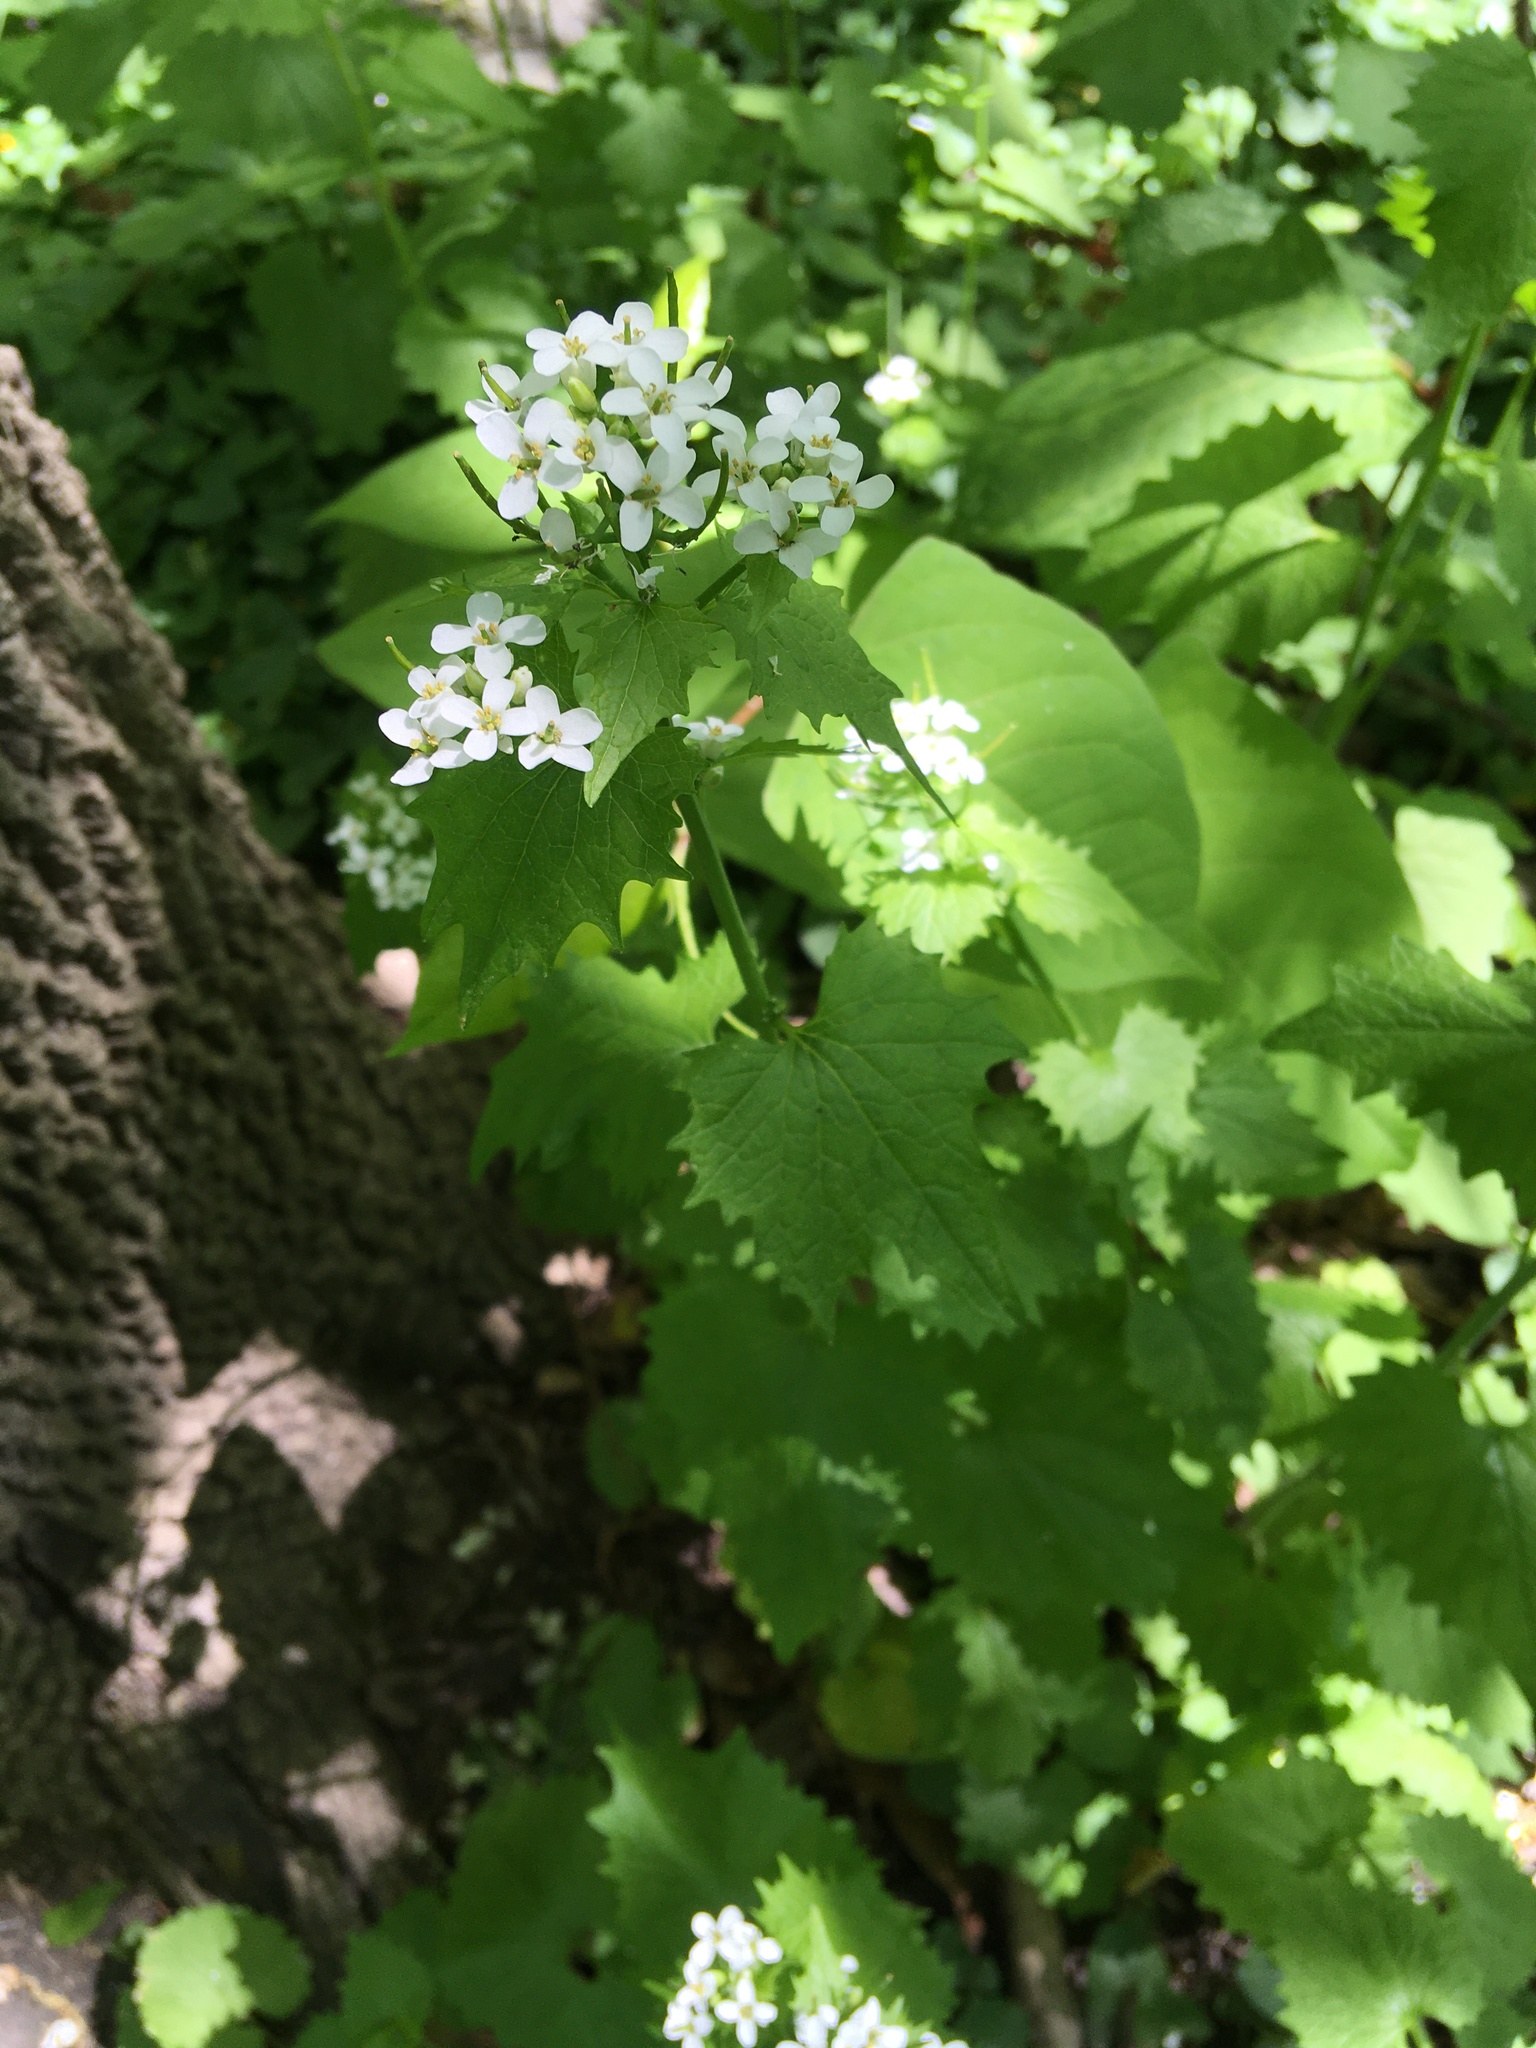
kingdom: Plantae
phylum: Tracheophyta
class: Magnoliopsida
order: Brassicales
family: Brassicaceae
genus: Alliaria
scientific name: Alliaria petiolata
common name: Garlic mustard
